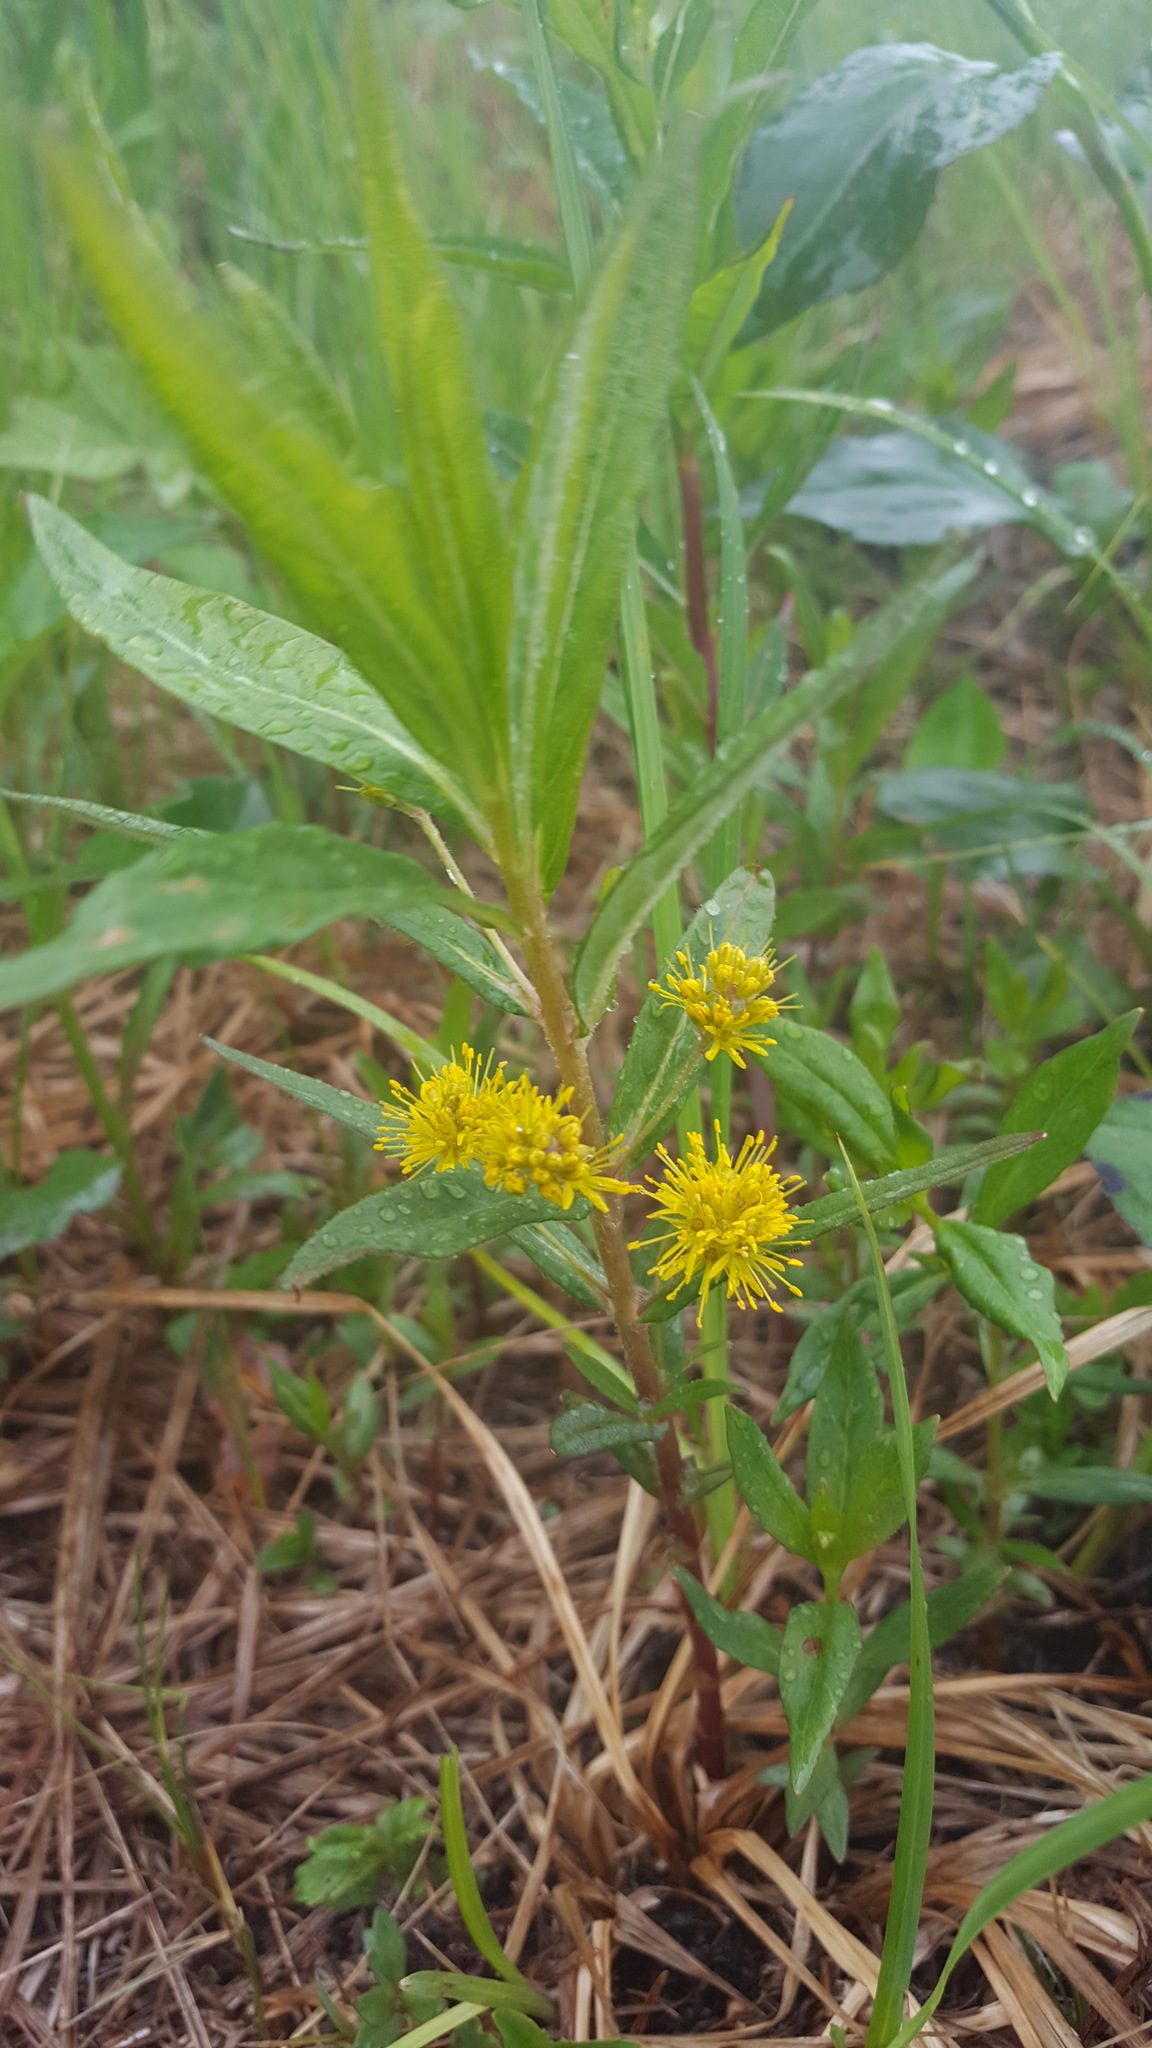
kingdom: Plantae
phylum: Tracheophyta
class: Magnoliopsida
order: Ericales
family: Primulaceae
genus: Lysimachia
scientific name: Lysimachia thyrsiflora
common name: Tufted loosestrife
